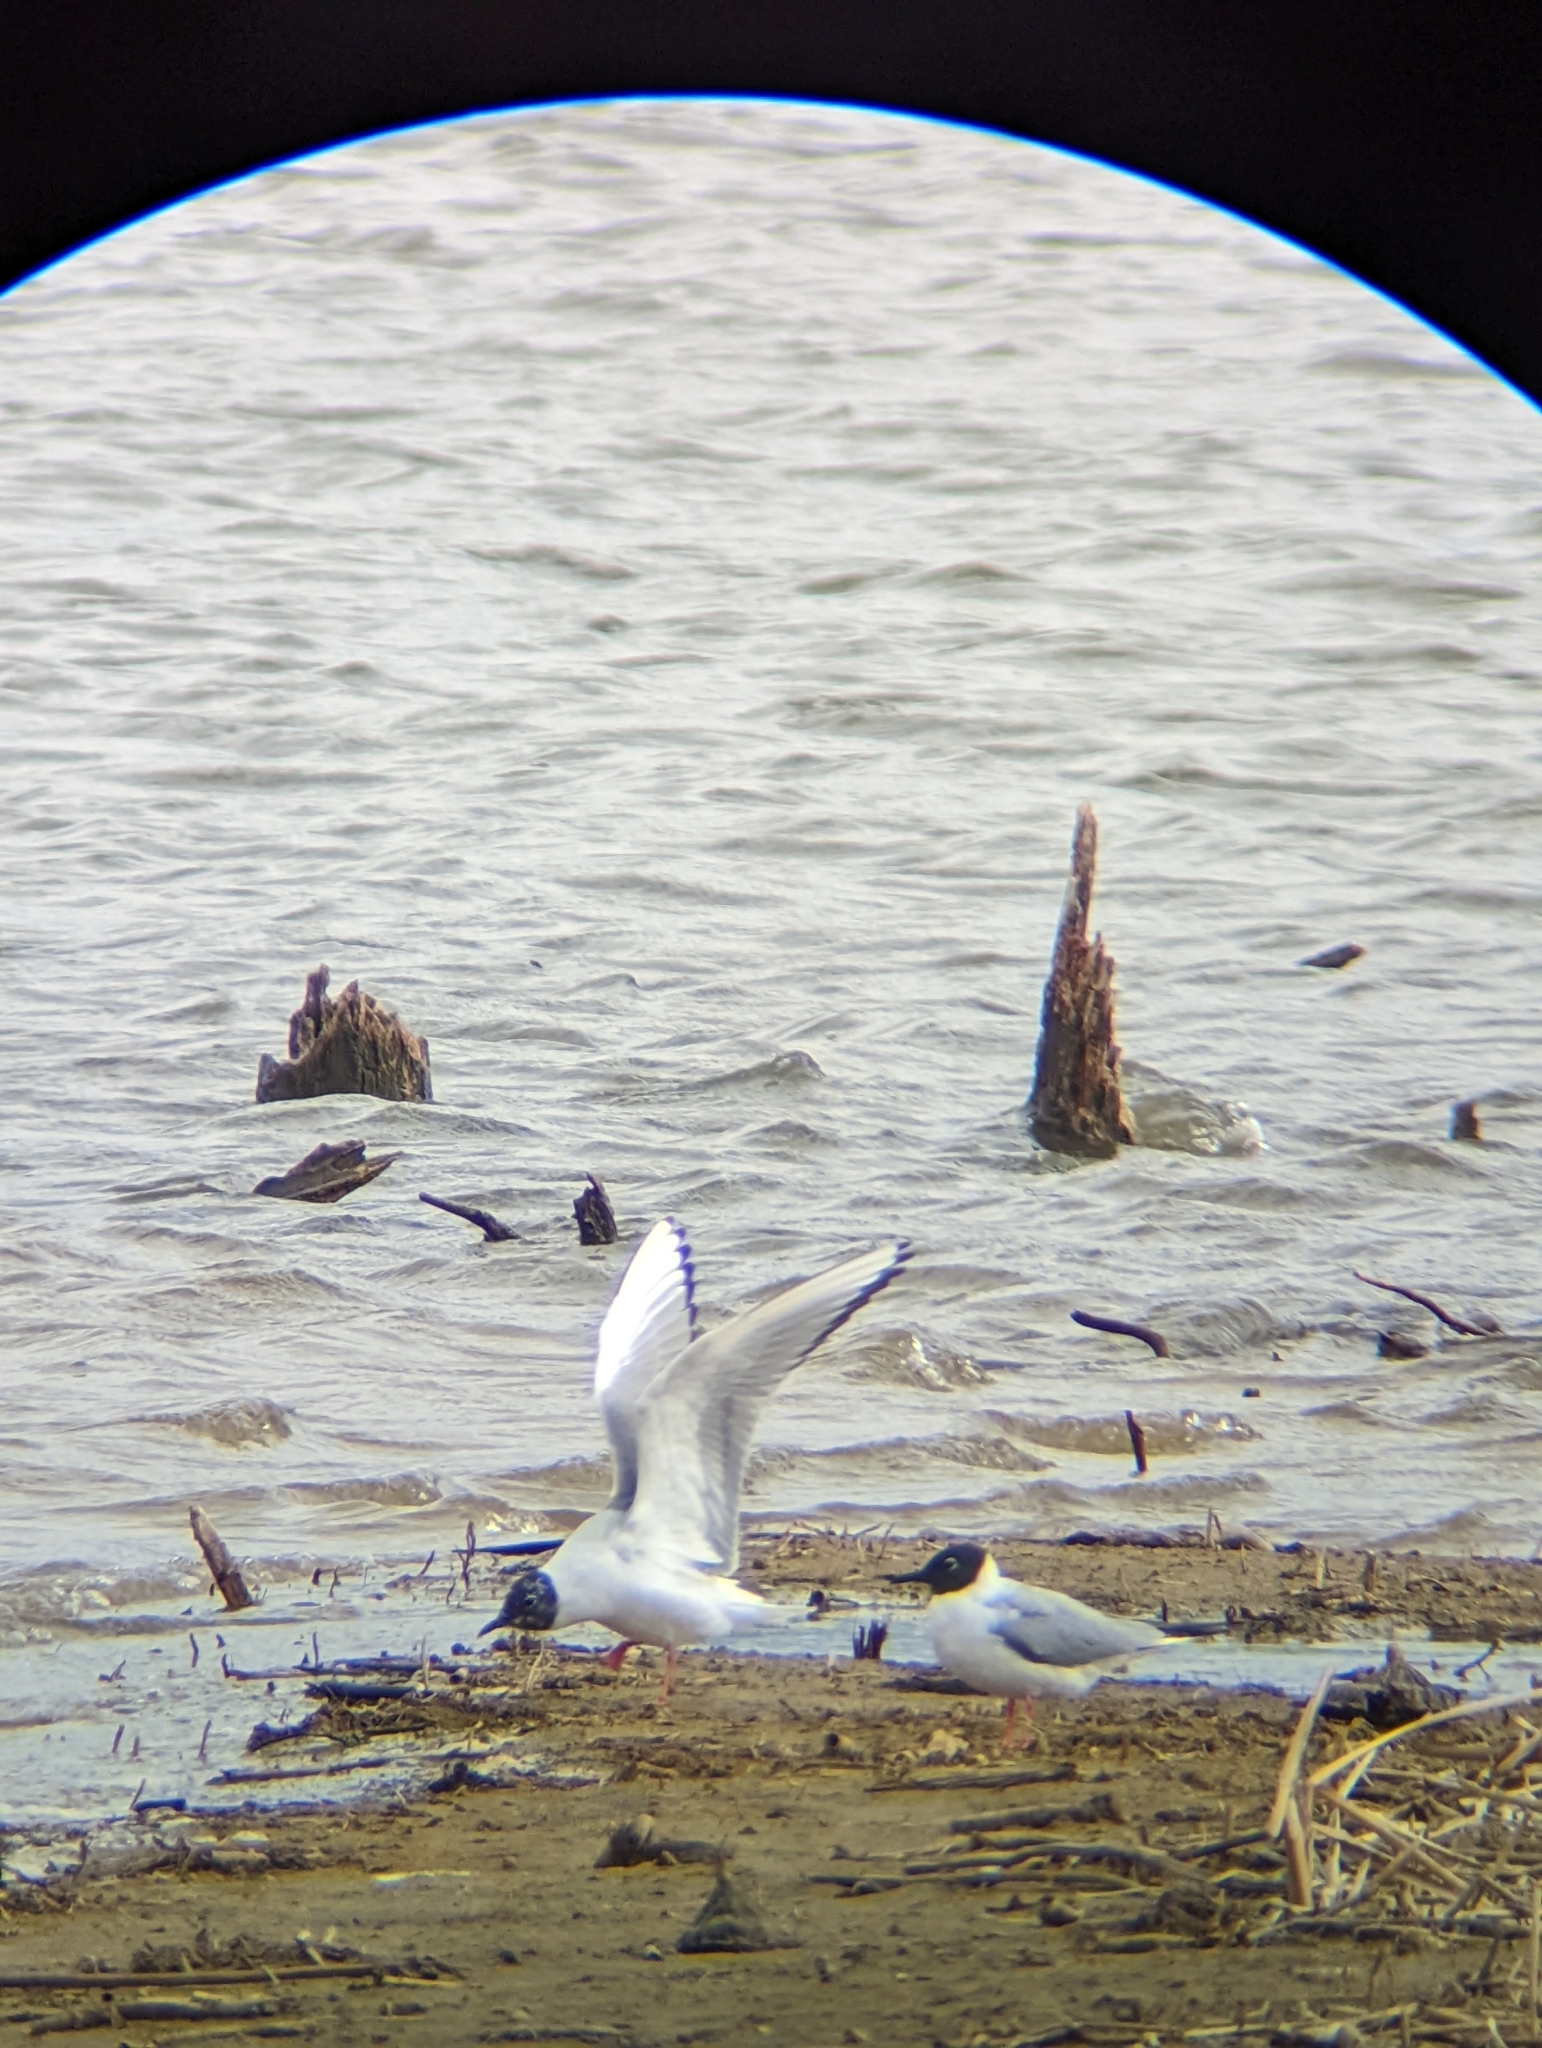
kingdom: Animalia
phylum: Chordata
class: Aves
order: Charadriiformes
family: Laridae
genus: Chroicocephalus
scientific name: Chroicocephalus philadelphia
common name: Bonaparte's gull
